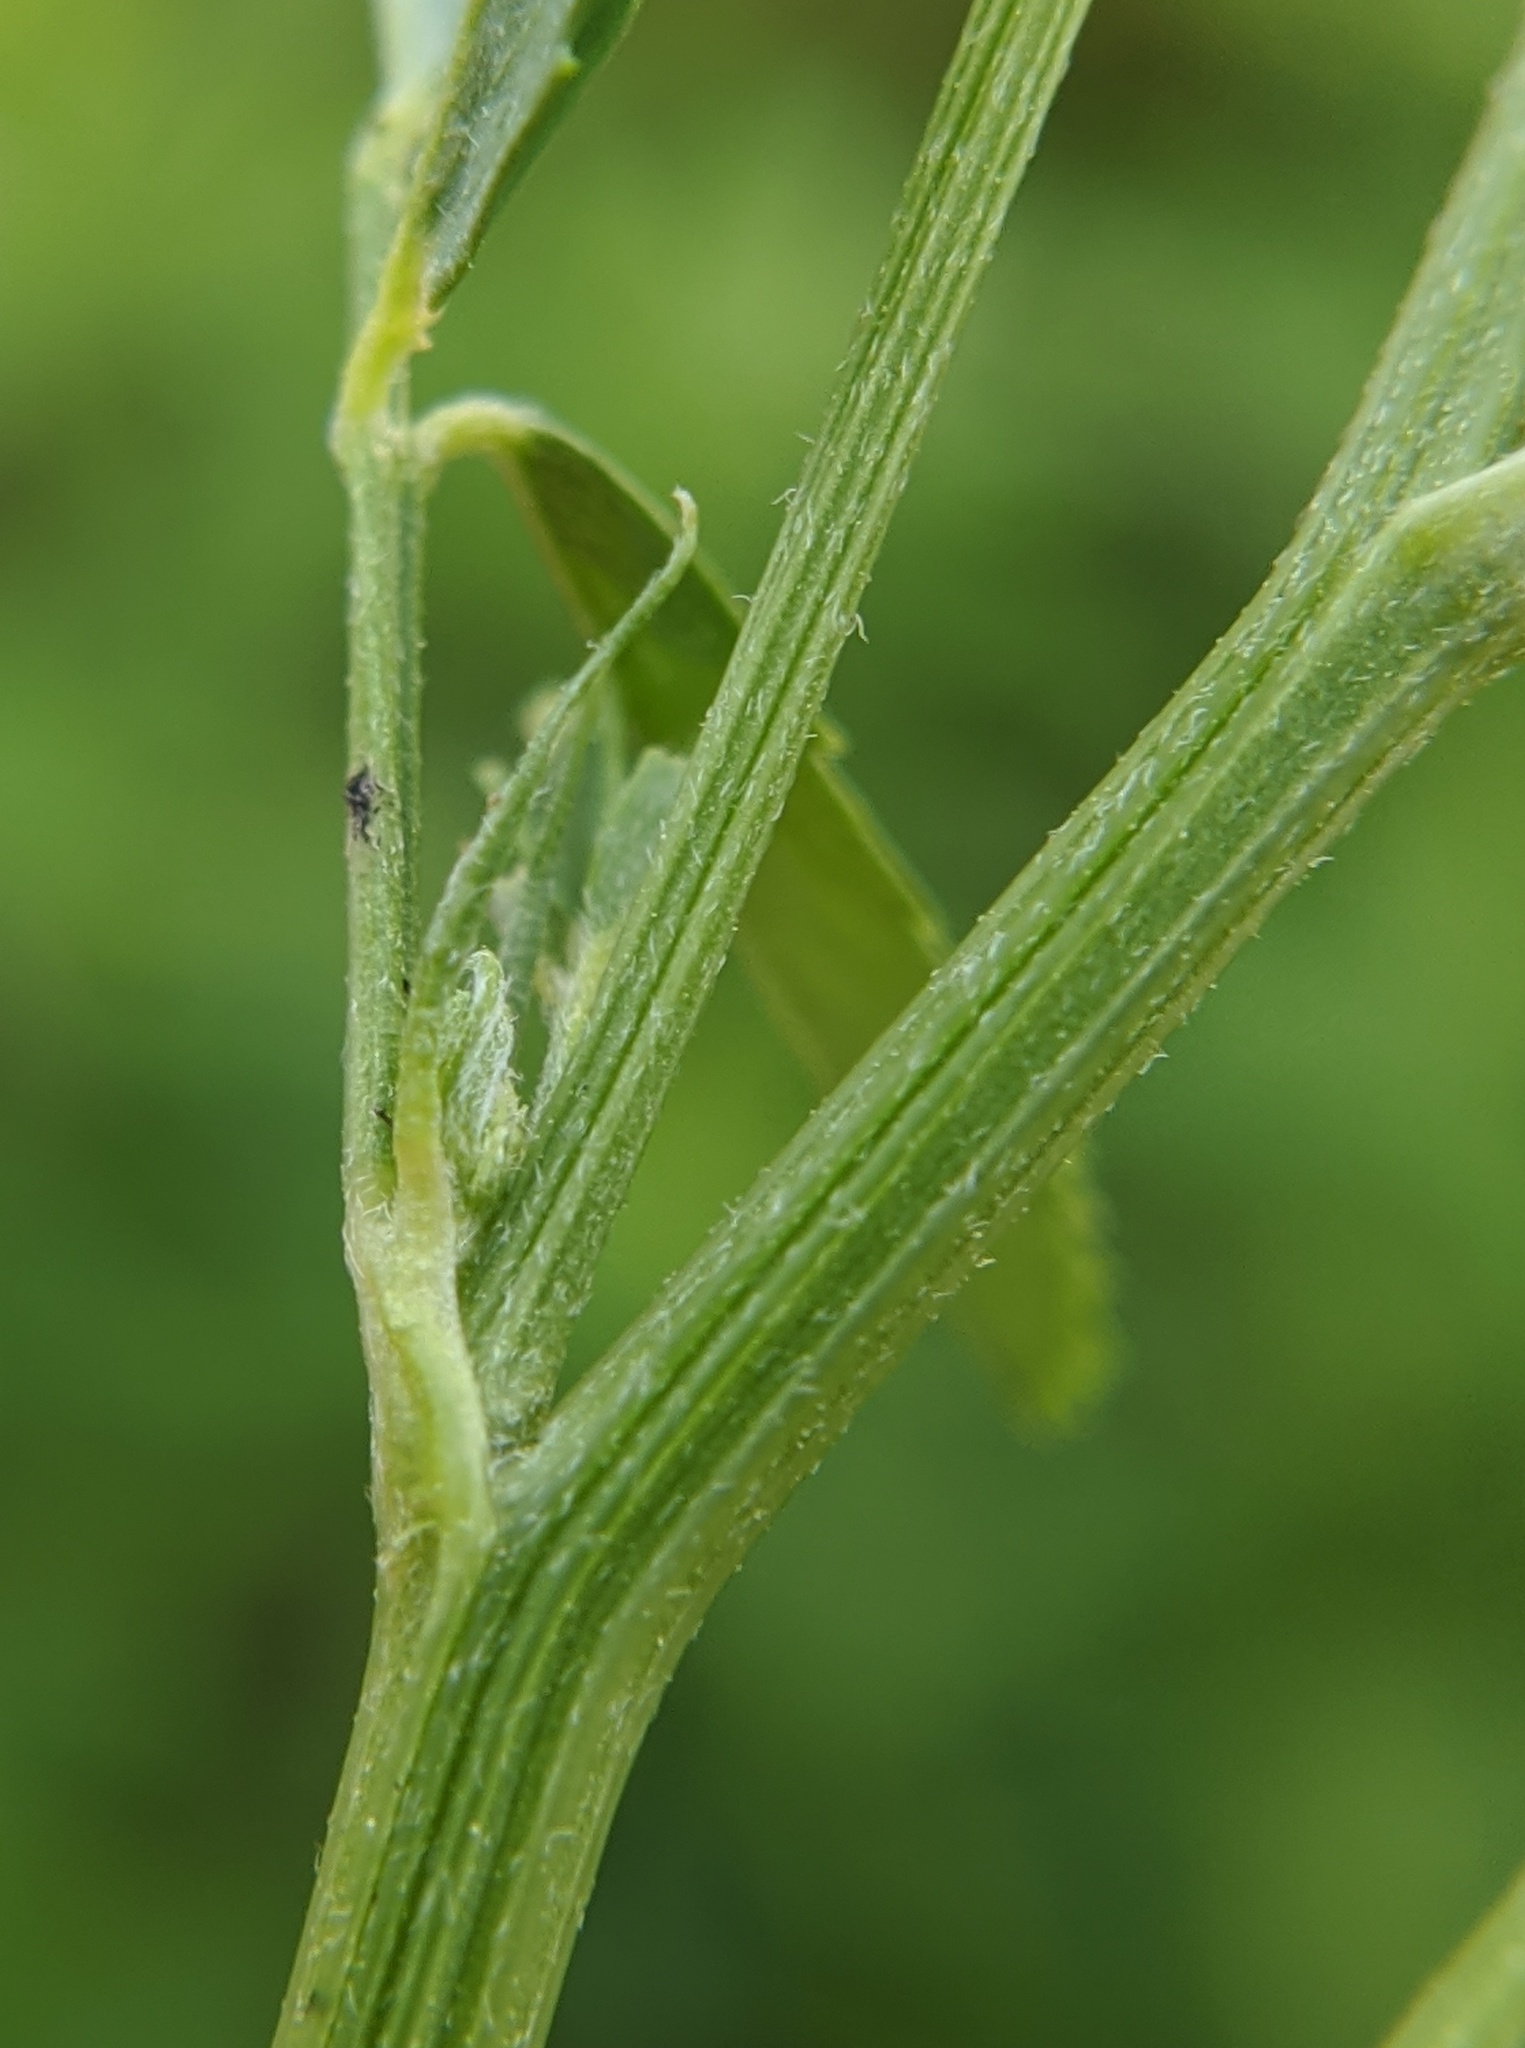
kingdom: Plantae
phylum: Tracheophyta
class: Magnoliopsida
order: Fabales
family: Fabaceae
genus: Melilotus
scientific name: Melilotus officinalis
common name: Sweetclover
